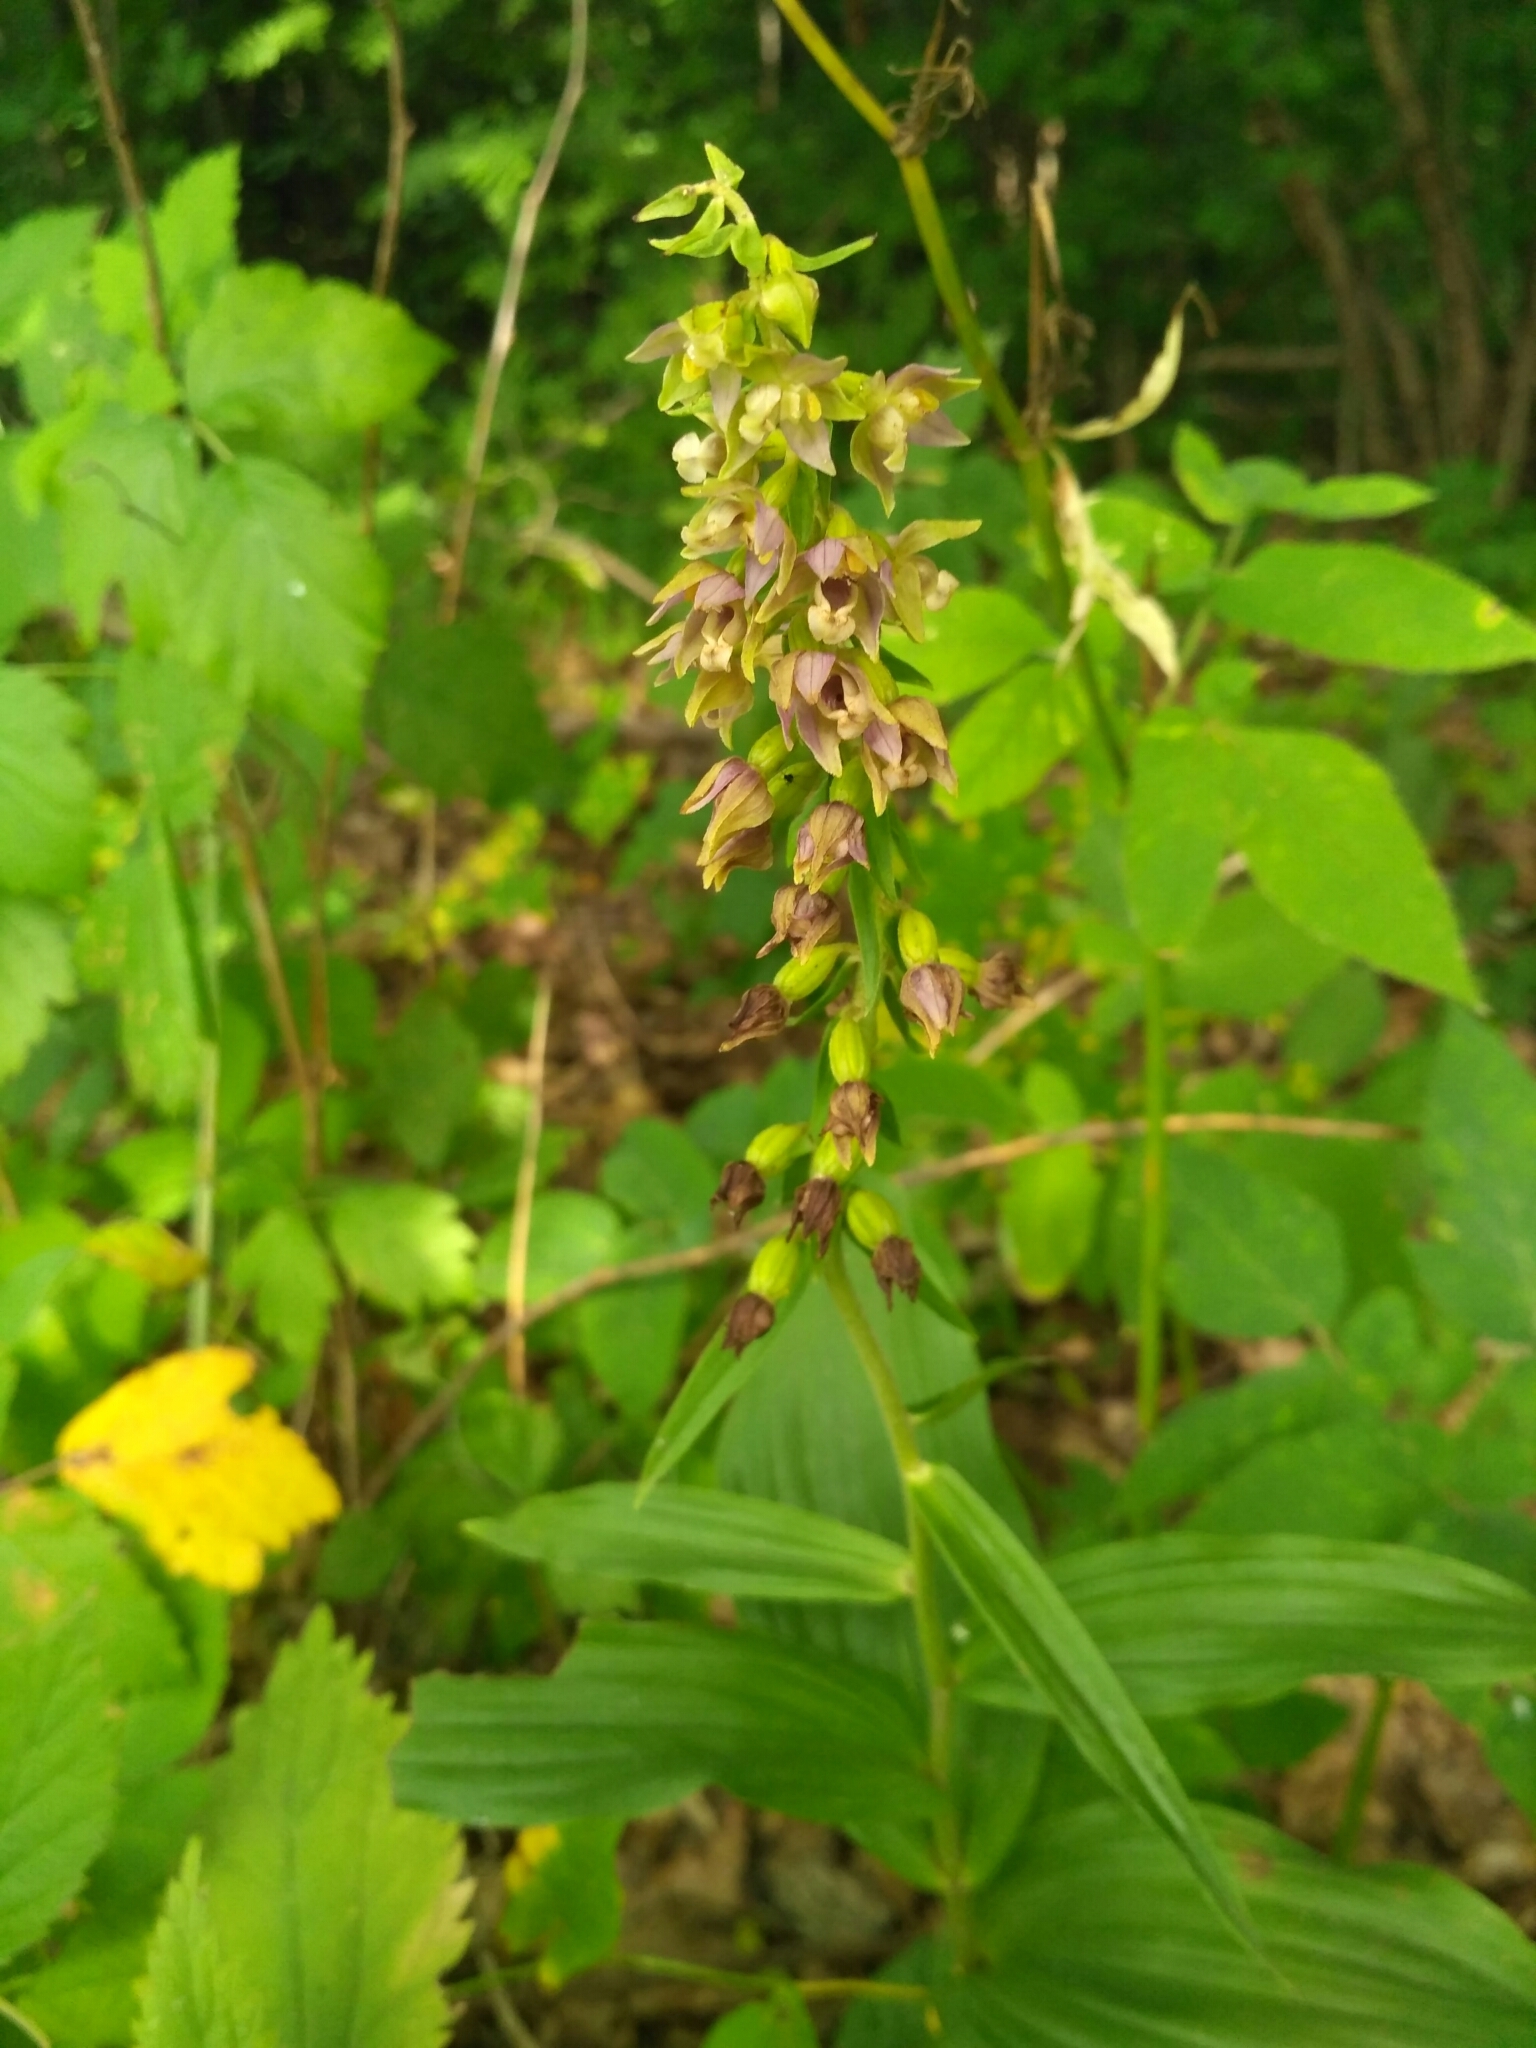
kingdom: Plantae
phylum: Tracheophyta
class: Liliopsida
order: Asparagales
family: Orchidaceae
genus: Epipactis
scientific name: Epipactis helleborine
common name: Broad-leaved helleborine
